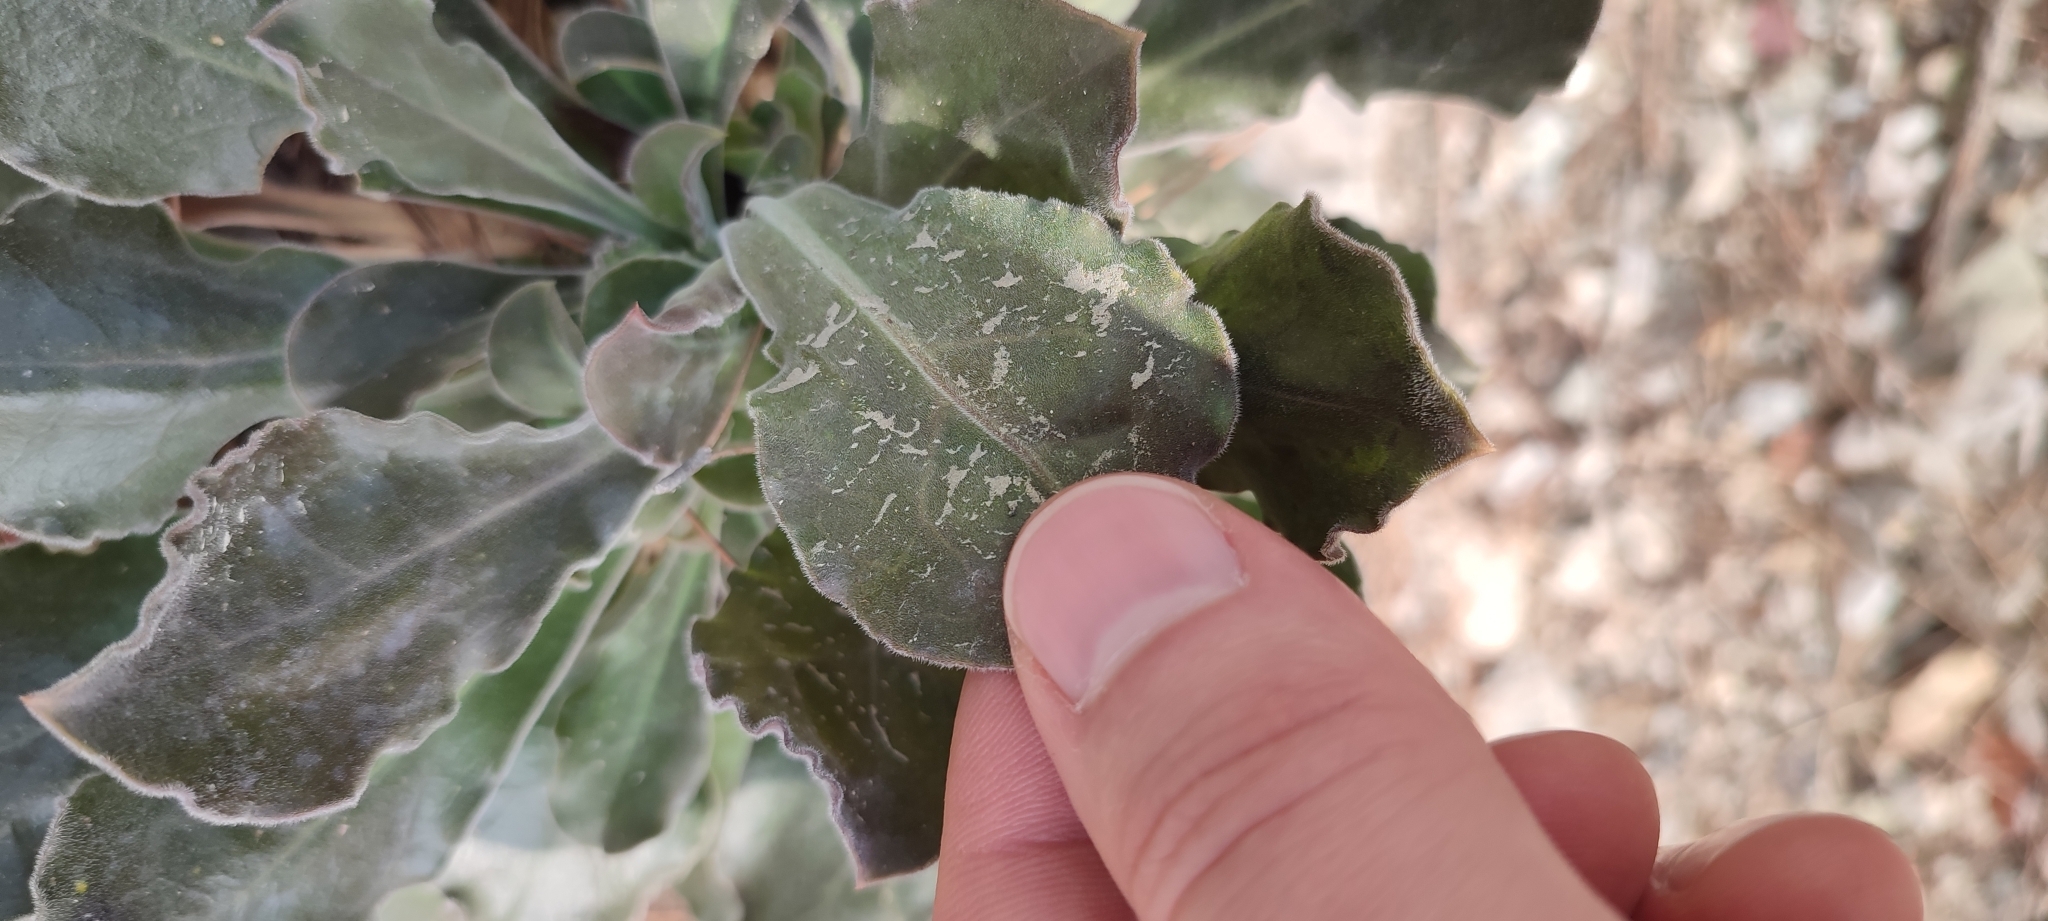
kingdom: Plantae
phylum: Tracheophyta
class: Magnoliopsida
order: Caryophyllales
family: Caryophyllaceae
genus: Silene
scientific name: Silene gigantea
